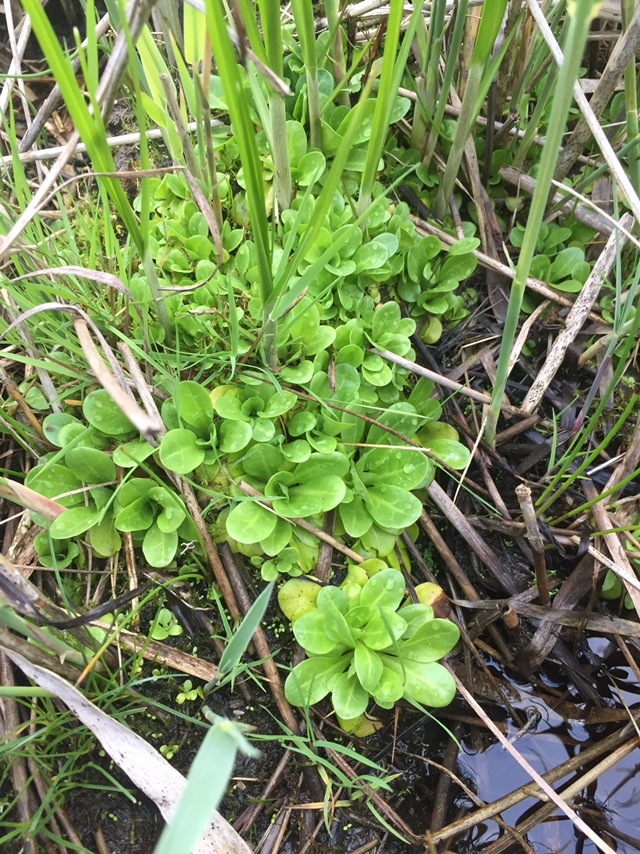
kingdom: Plantae
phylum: Tracheophyta
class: Magnoliopsida
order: Lamiales
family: Plantaginaceae
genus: Veronica
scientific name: Veronica beccabunga
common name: Brooklime
